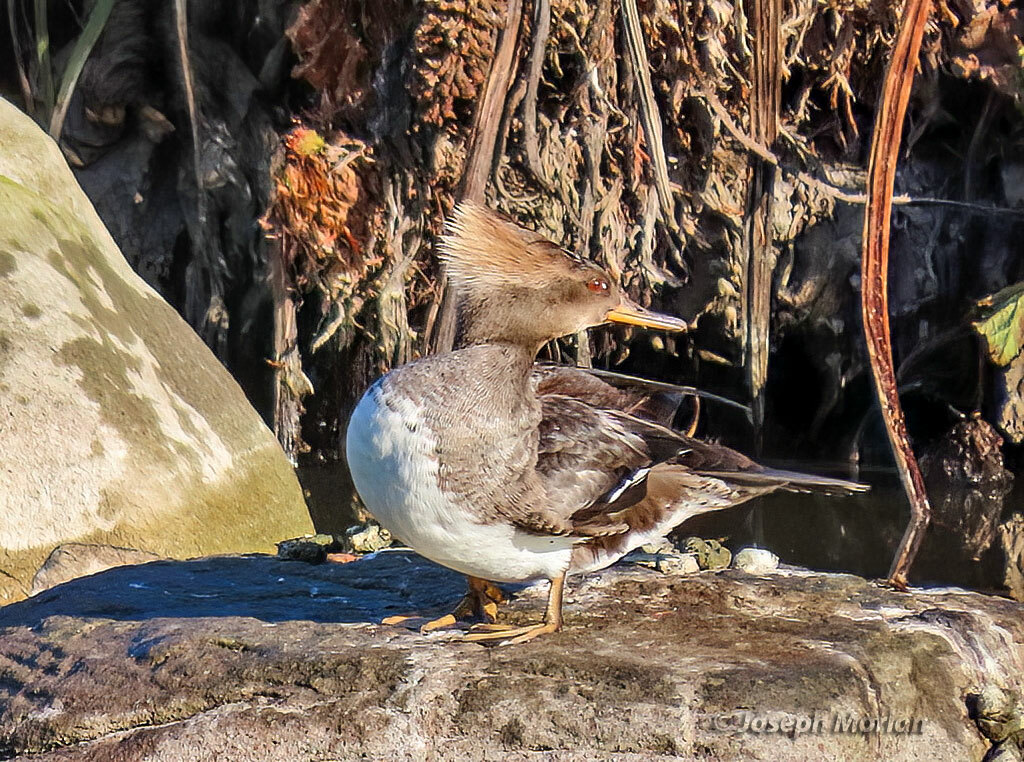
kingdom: Animalia
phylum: Chordata
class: Aves
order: Anseriformes
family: Anatidae
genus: Lophodytes
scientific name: Lophodytes cucullatus
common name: Hooded merganser
